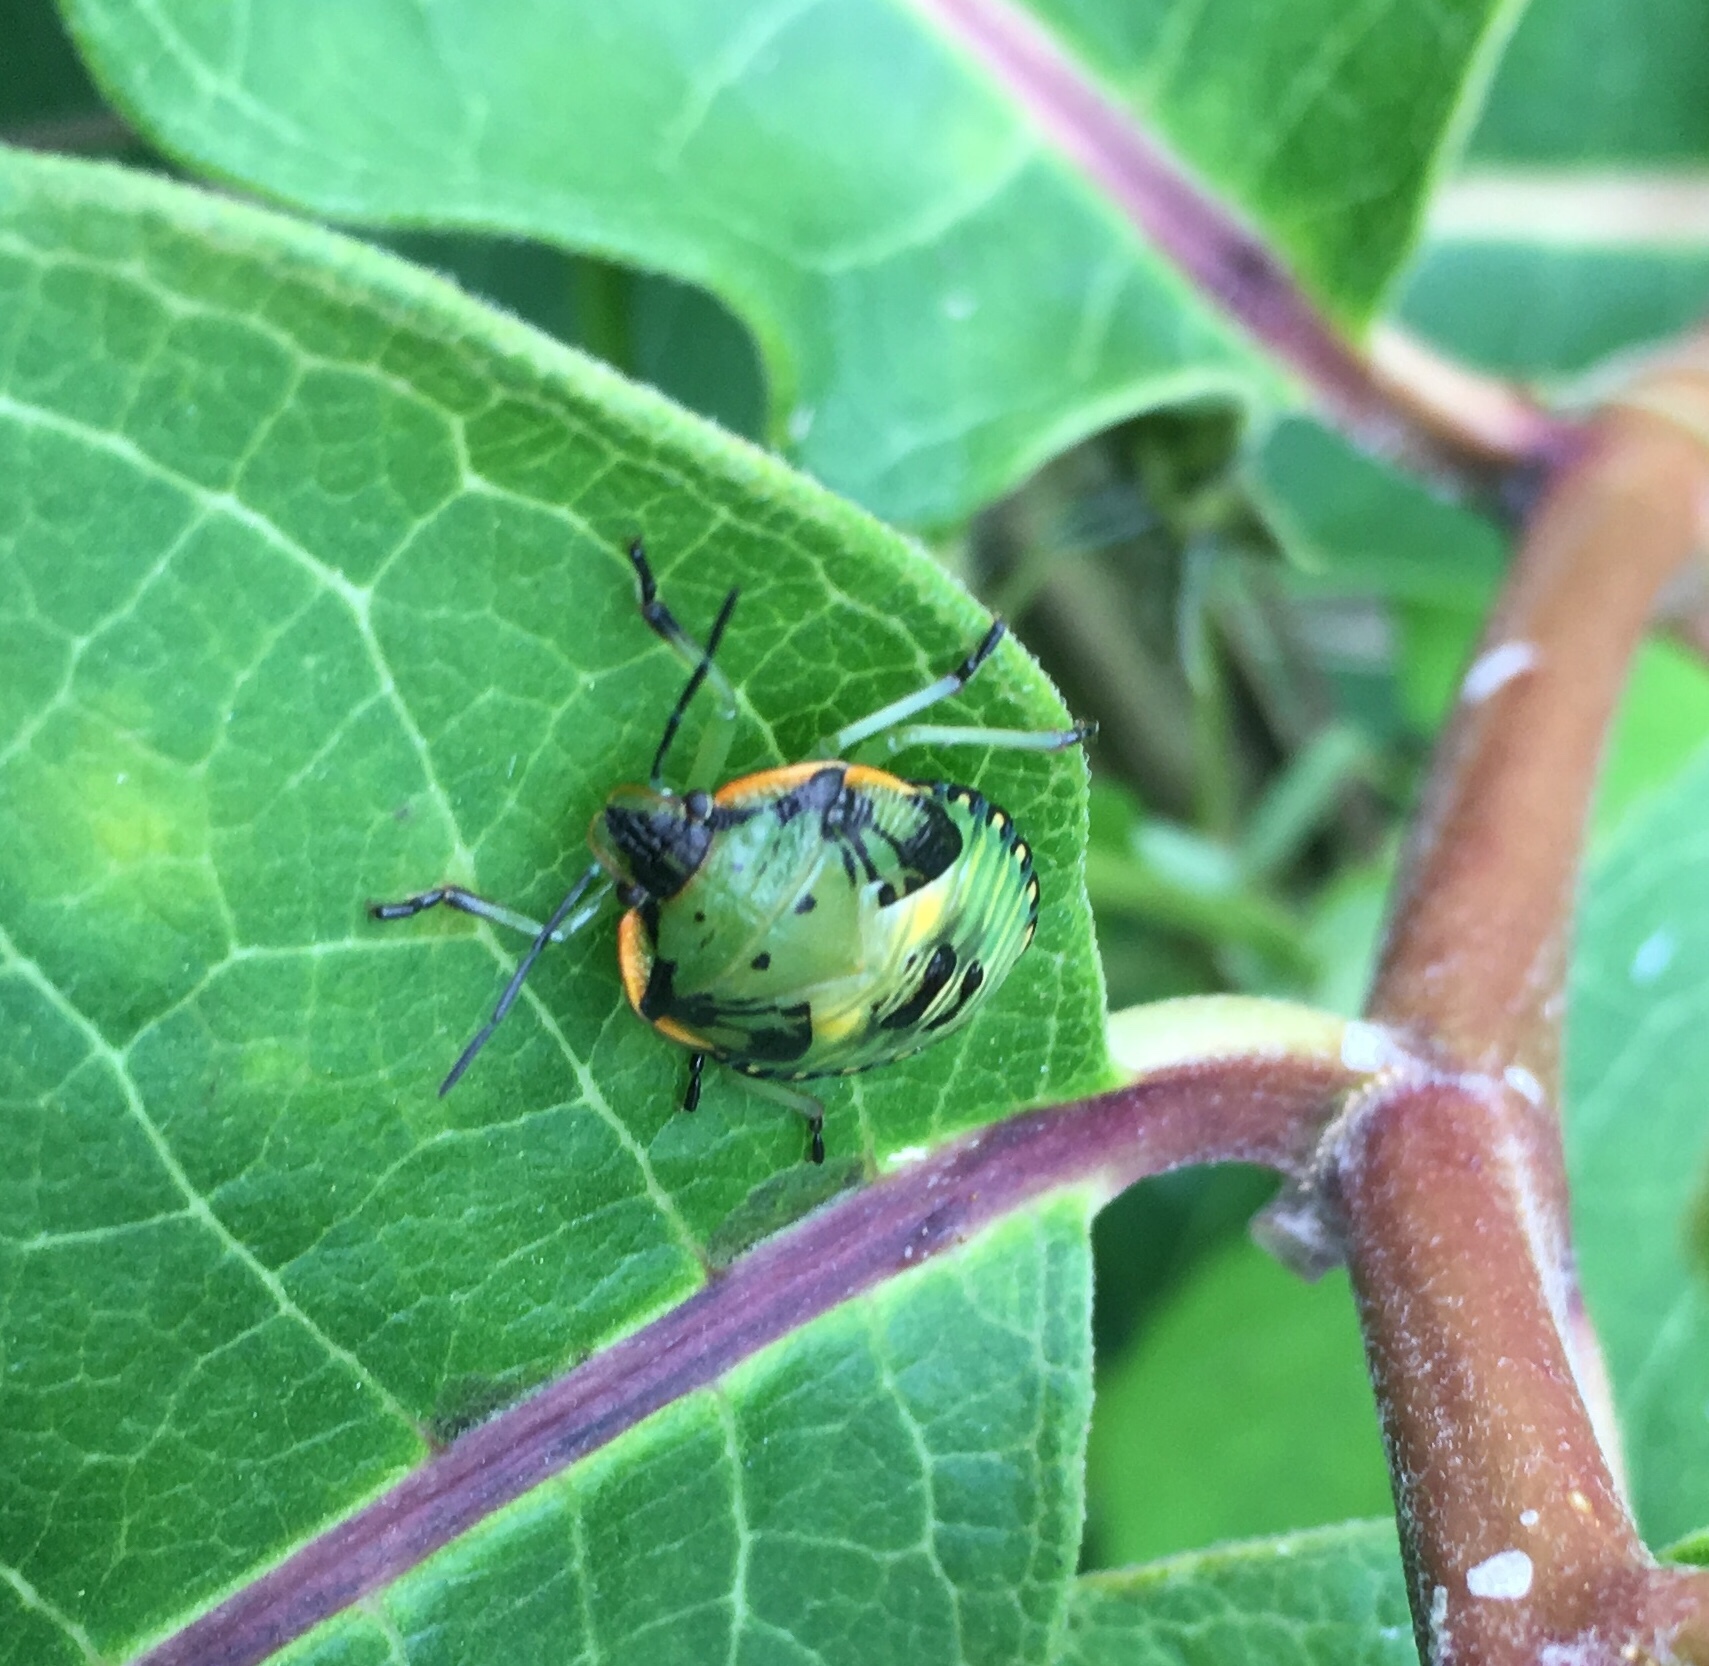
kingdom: Animalia
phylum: Arthropoda
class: Insecta
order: Hemiptera
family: Pentatomidae
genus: Chinavia
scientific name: Chinavia hilaris
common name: Green stink bug
